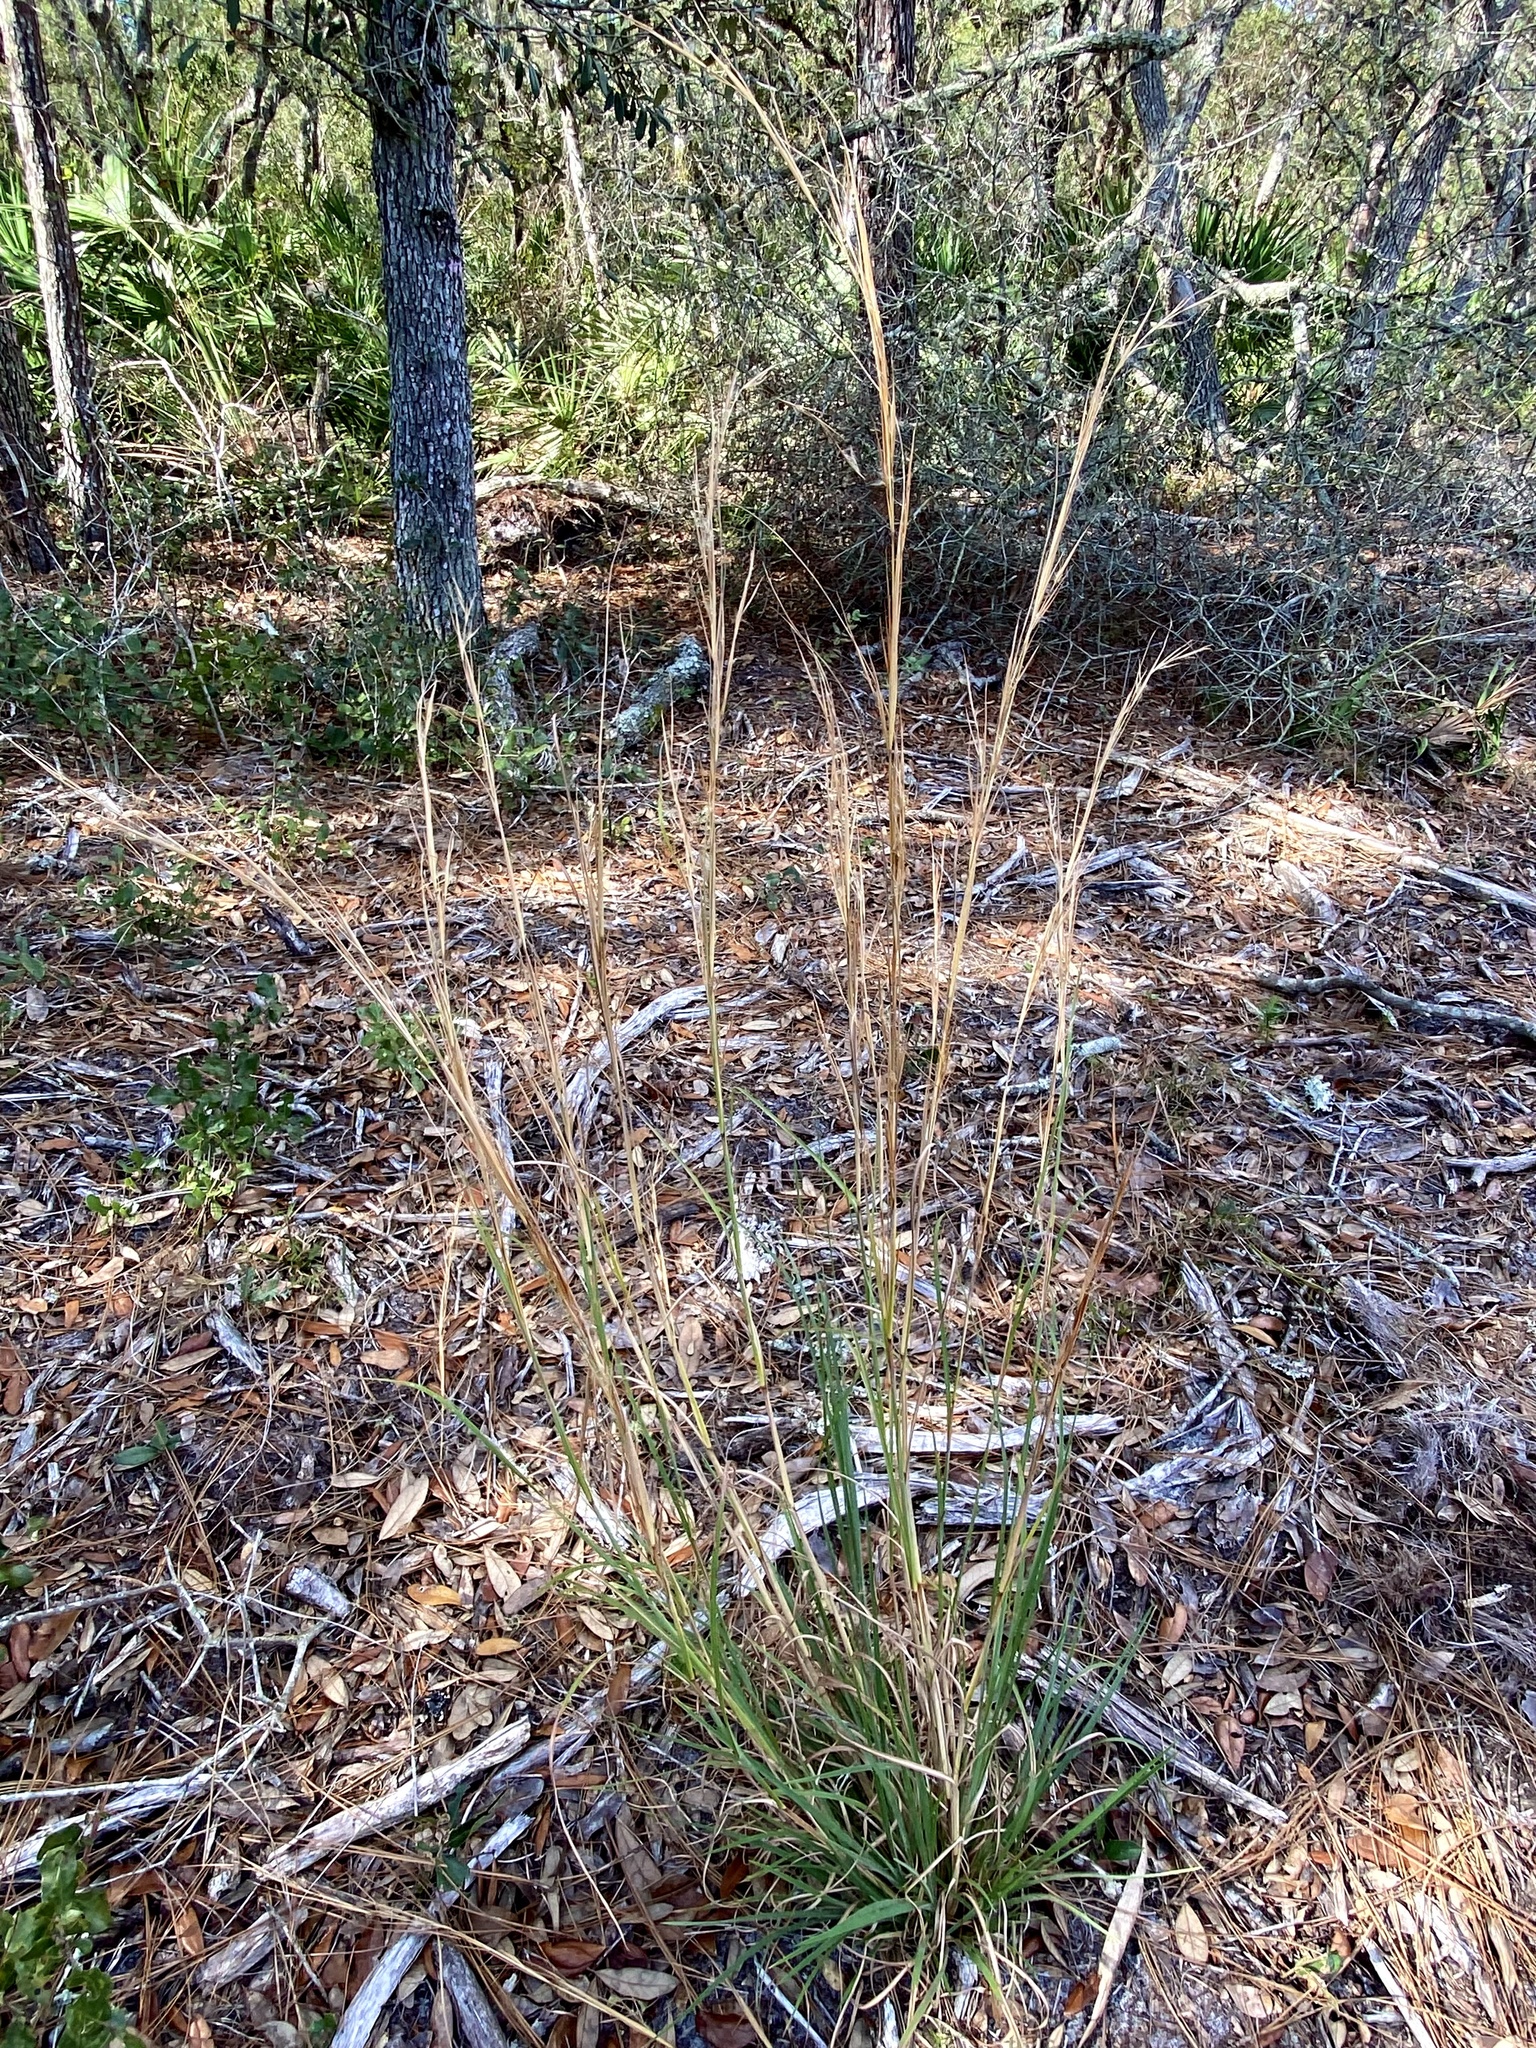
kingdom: Plantae
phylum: Tracheophyta
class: Liliopsida
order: Poales
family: Poaceae
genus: Andropogon
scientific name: Andropogon hirsutior
